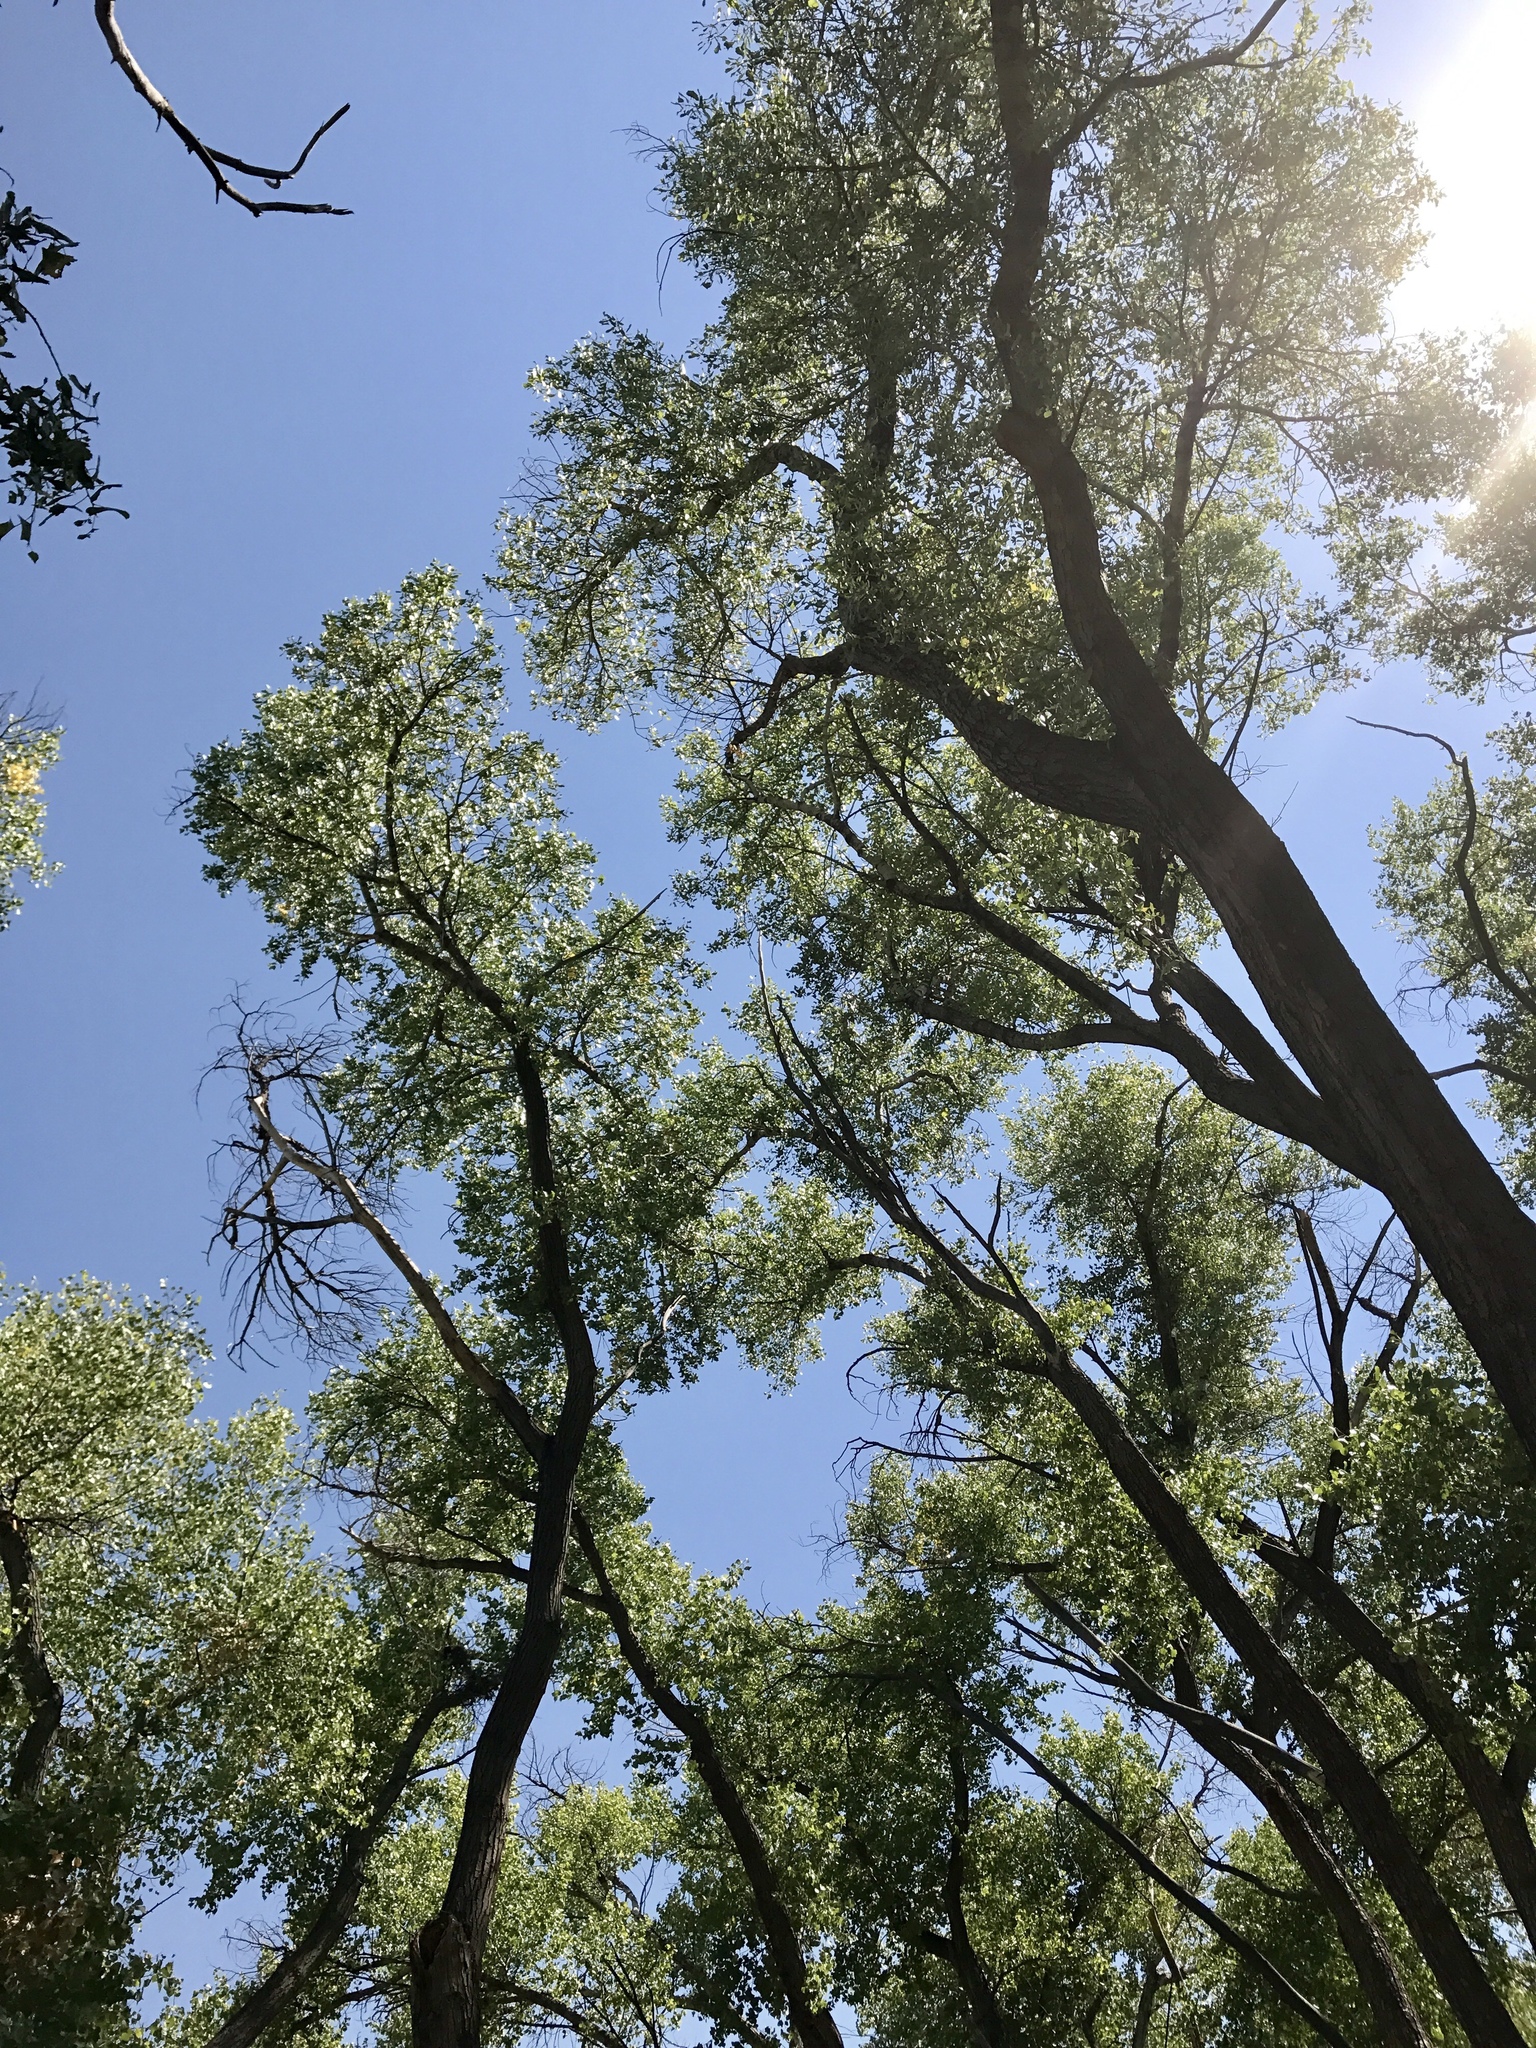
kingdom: Plantae
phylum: Tracheophyta
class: Magnoliopsida
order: Malpighiales
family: Salicaceae
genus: Populus
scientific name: Populus fremontii
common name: Fremont's cottonwood
